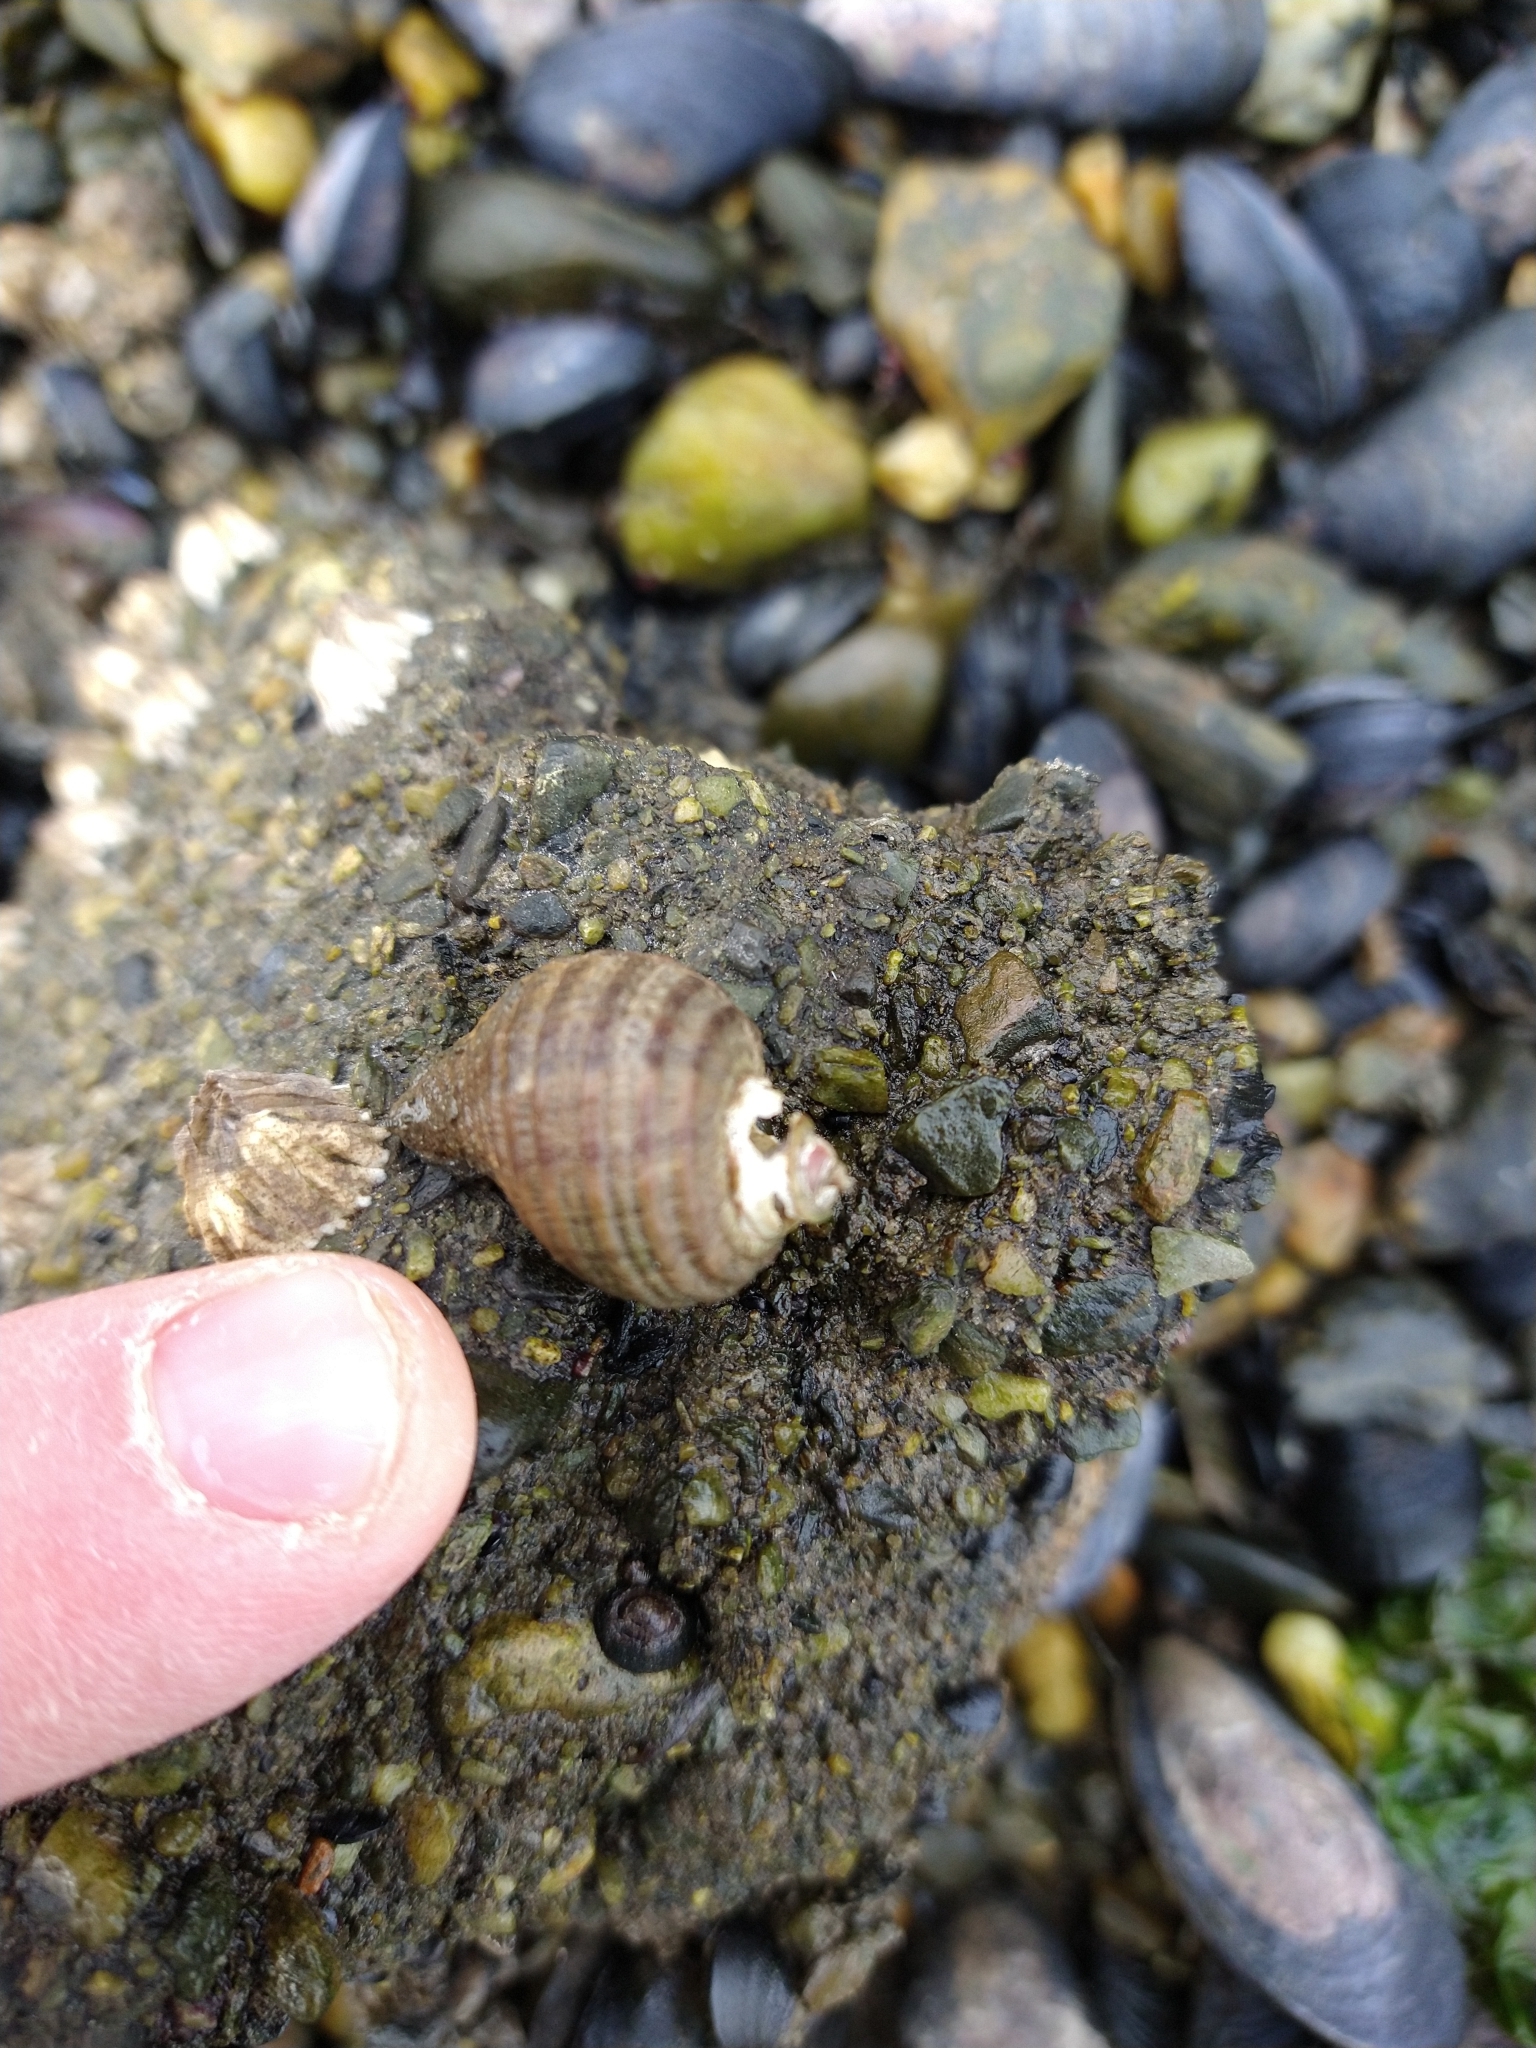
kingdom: Animalia
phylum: Mollusca
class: Gastropoda
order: Neogastropoda
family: Muricidae
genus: Acanthina
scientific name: Acanthina monodon
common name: One-toothed thais
